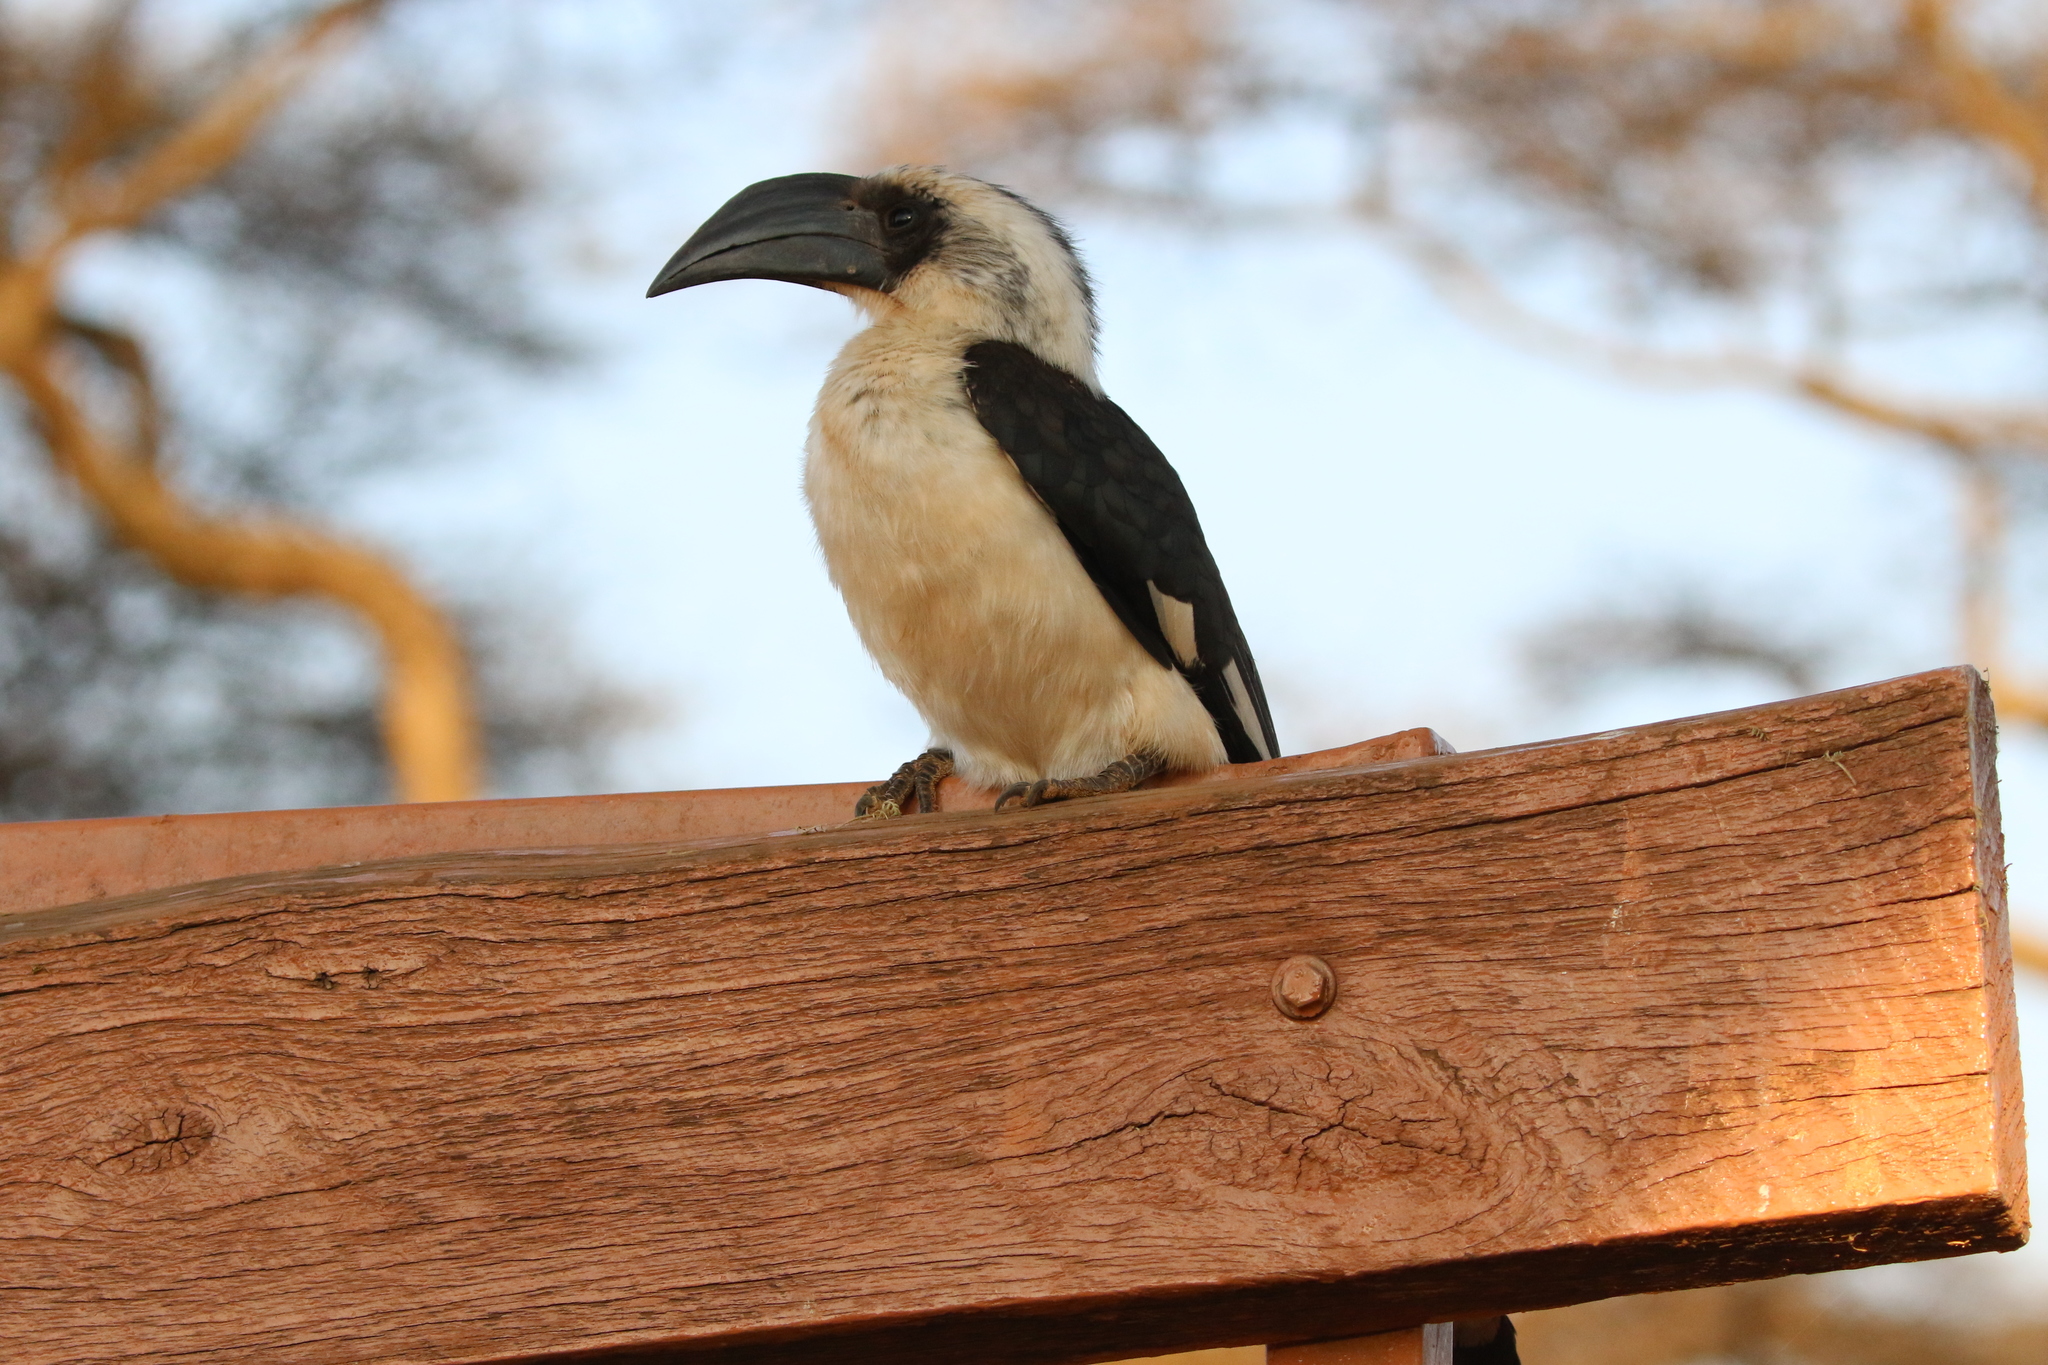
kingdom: Animalia
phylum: Chordata
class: Aves
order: Bucerotiformes
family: Bucerotidae
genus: Tockus
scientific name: Tockus deckeni
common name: Von der decken's hornbill
